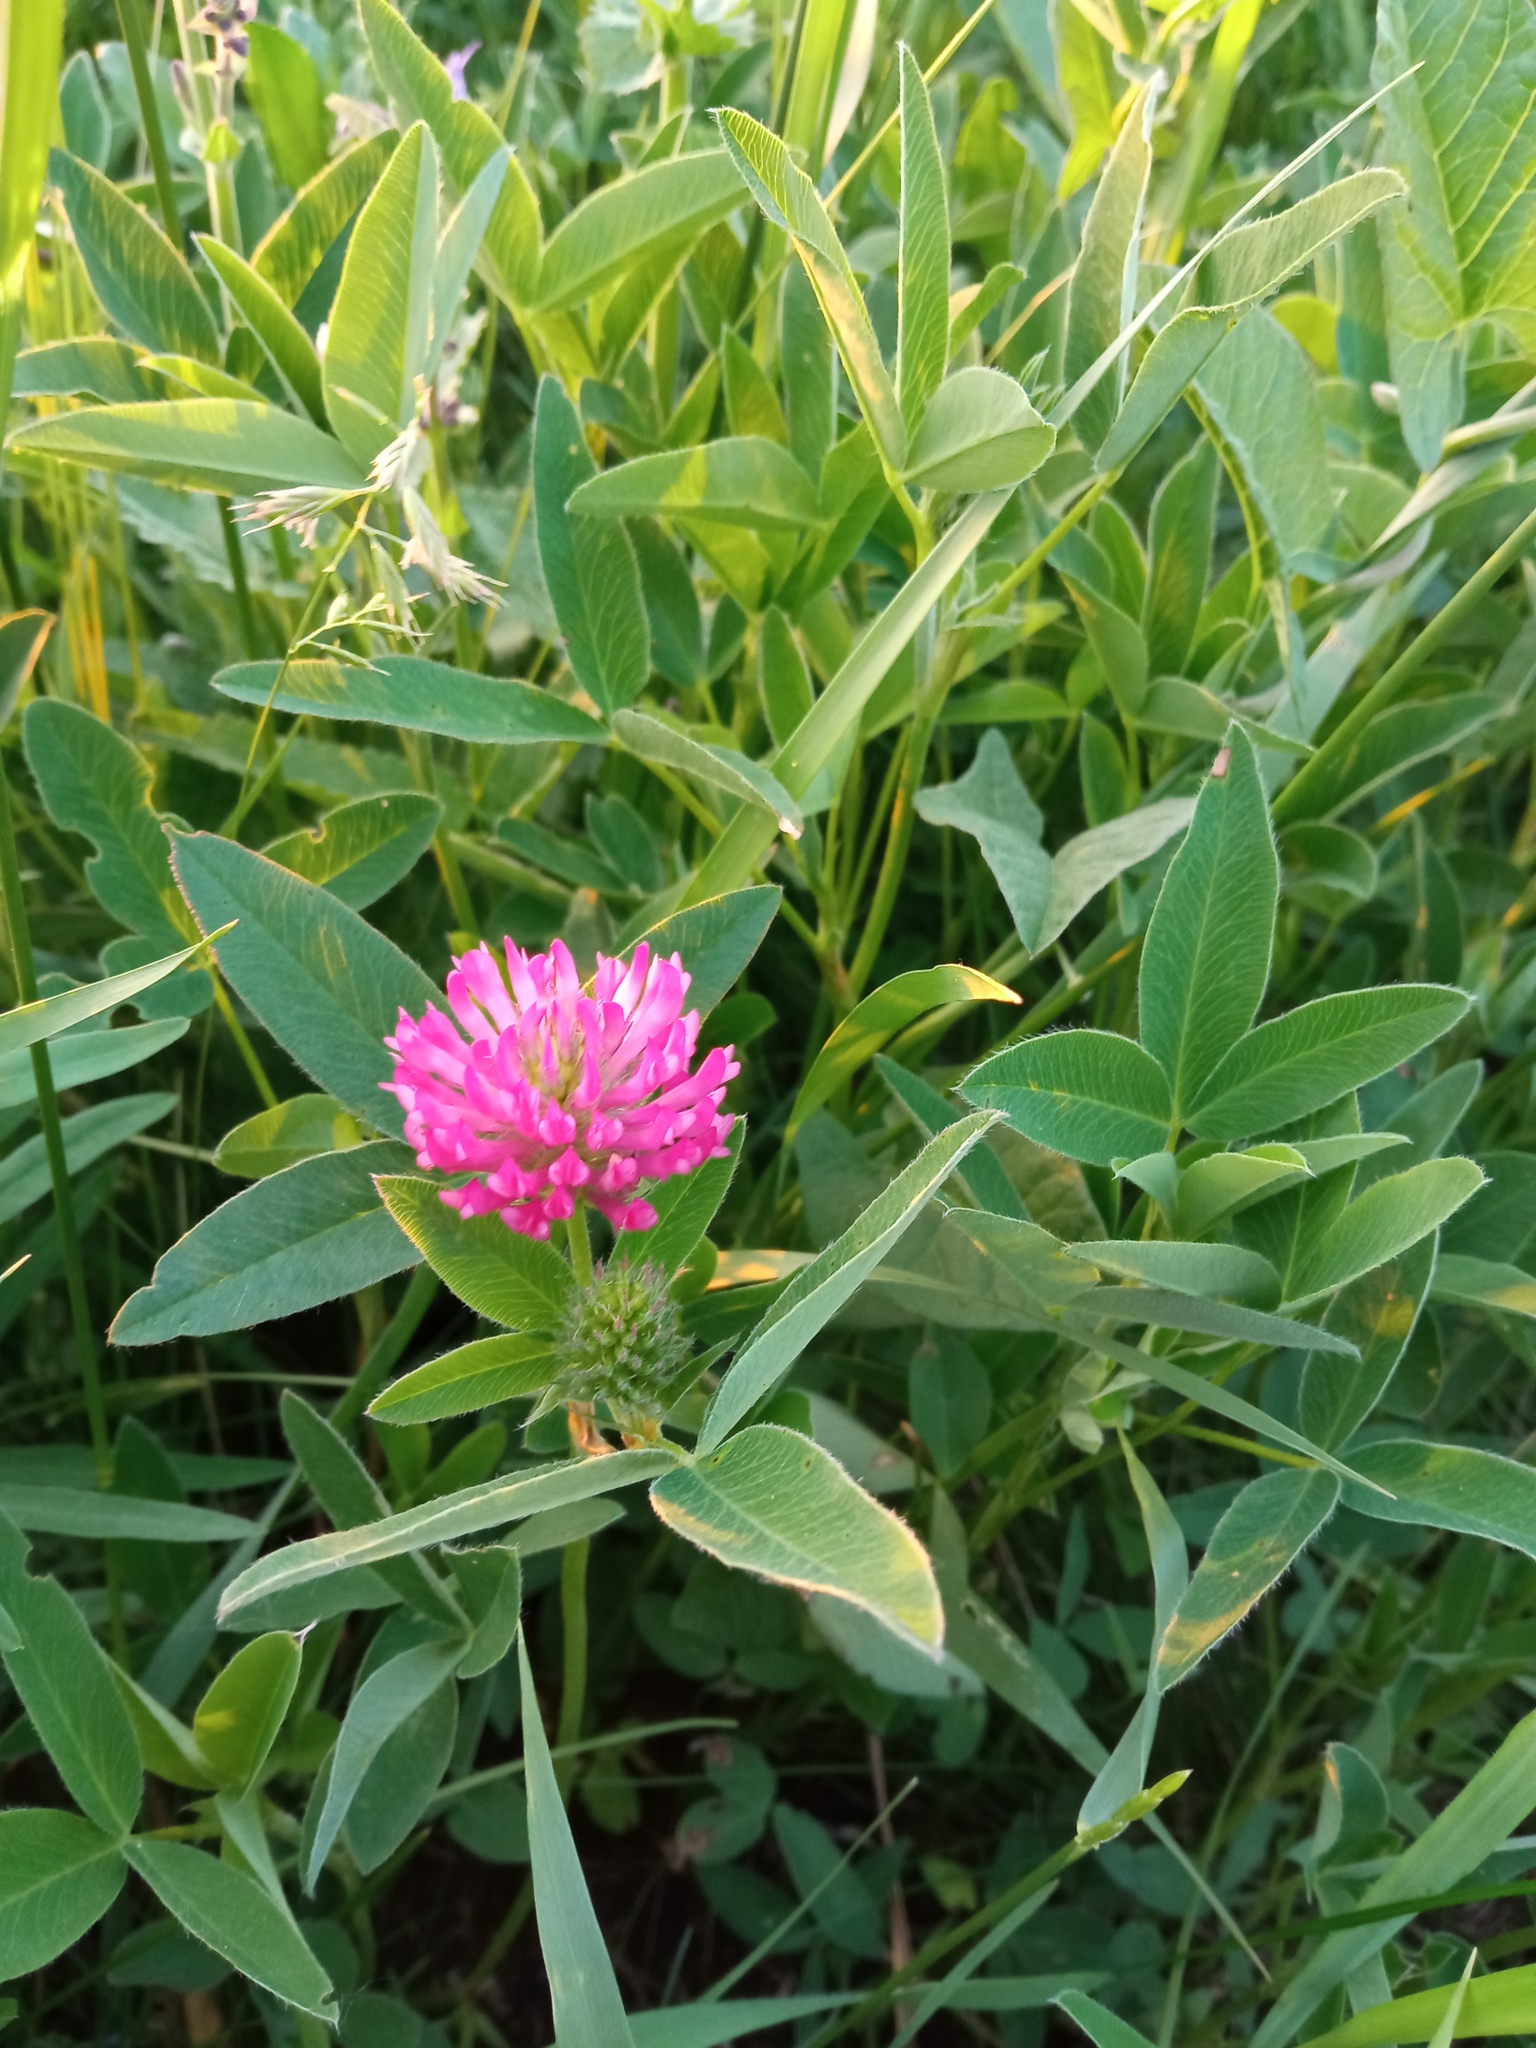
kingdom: Plantae
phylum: Tracheophyta
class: Magnoliopsida
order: Fabales
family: Fabaceae
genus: Trifolium
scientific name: Trifolium medium
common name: Zigzag clover
